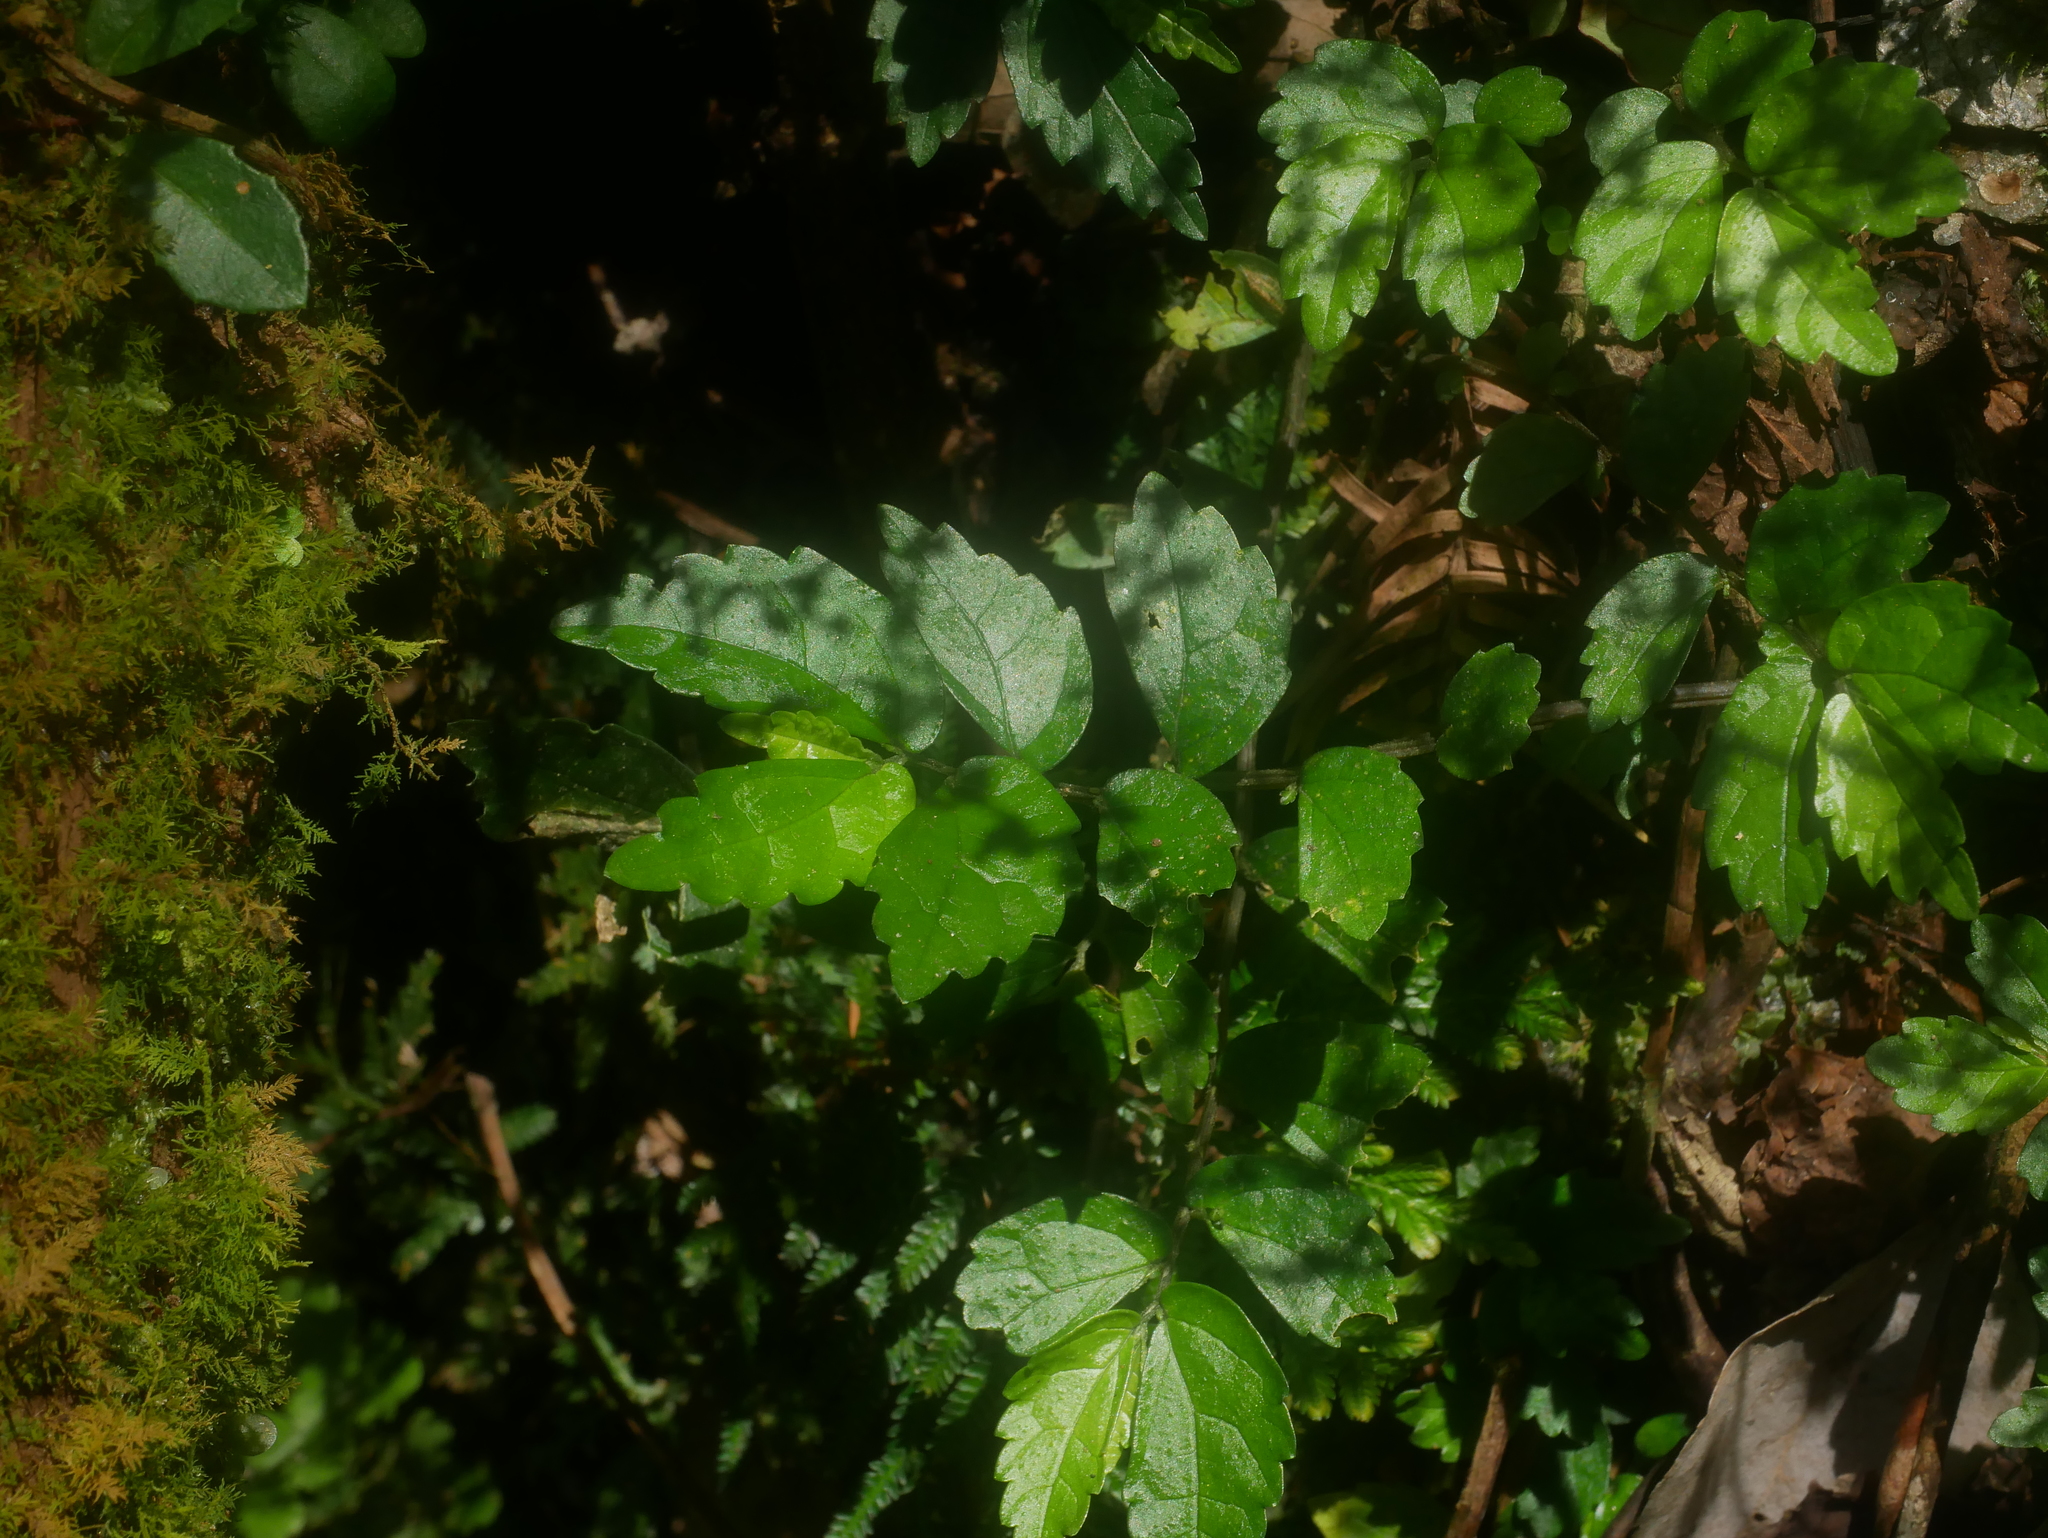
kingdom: Plantae
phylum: Tracheophyta
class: Magnoliopsida
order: Rosales
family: Urticaceae
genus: Elatostema
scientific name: Elatostema microcephalanthum
